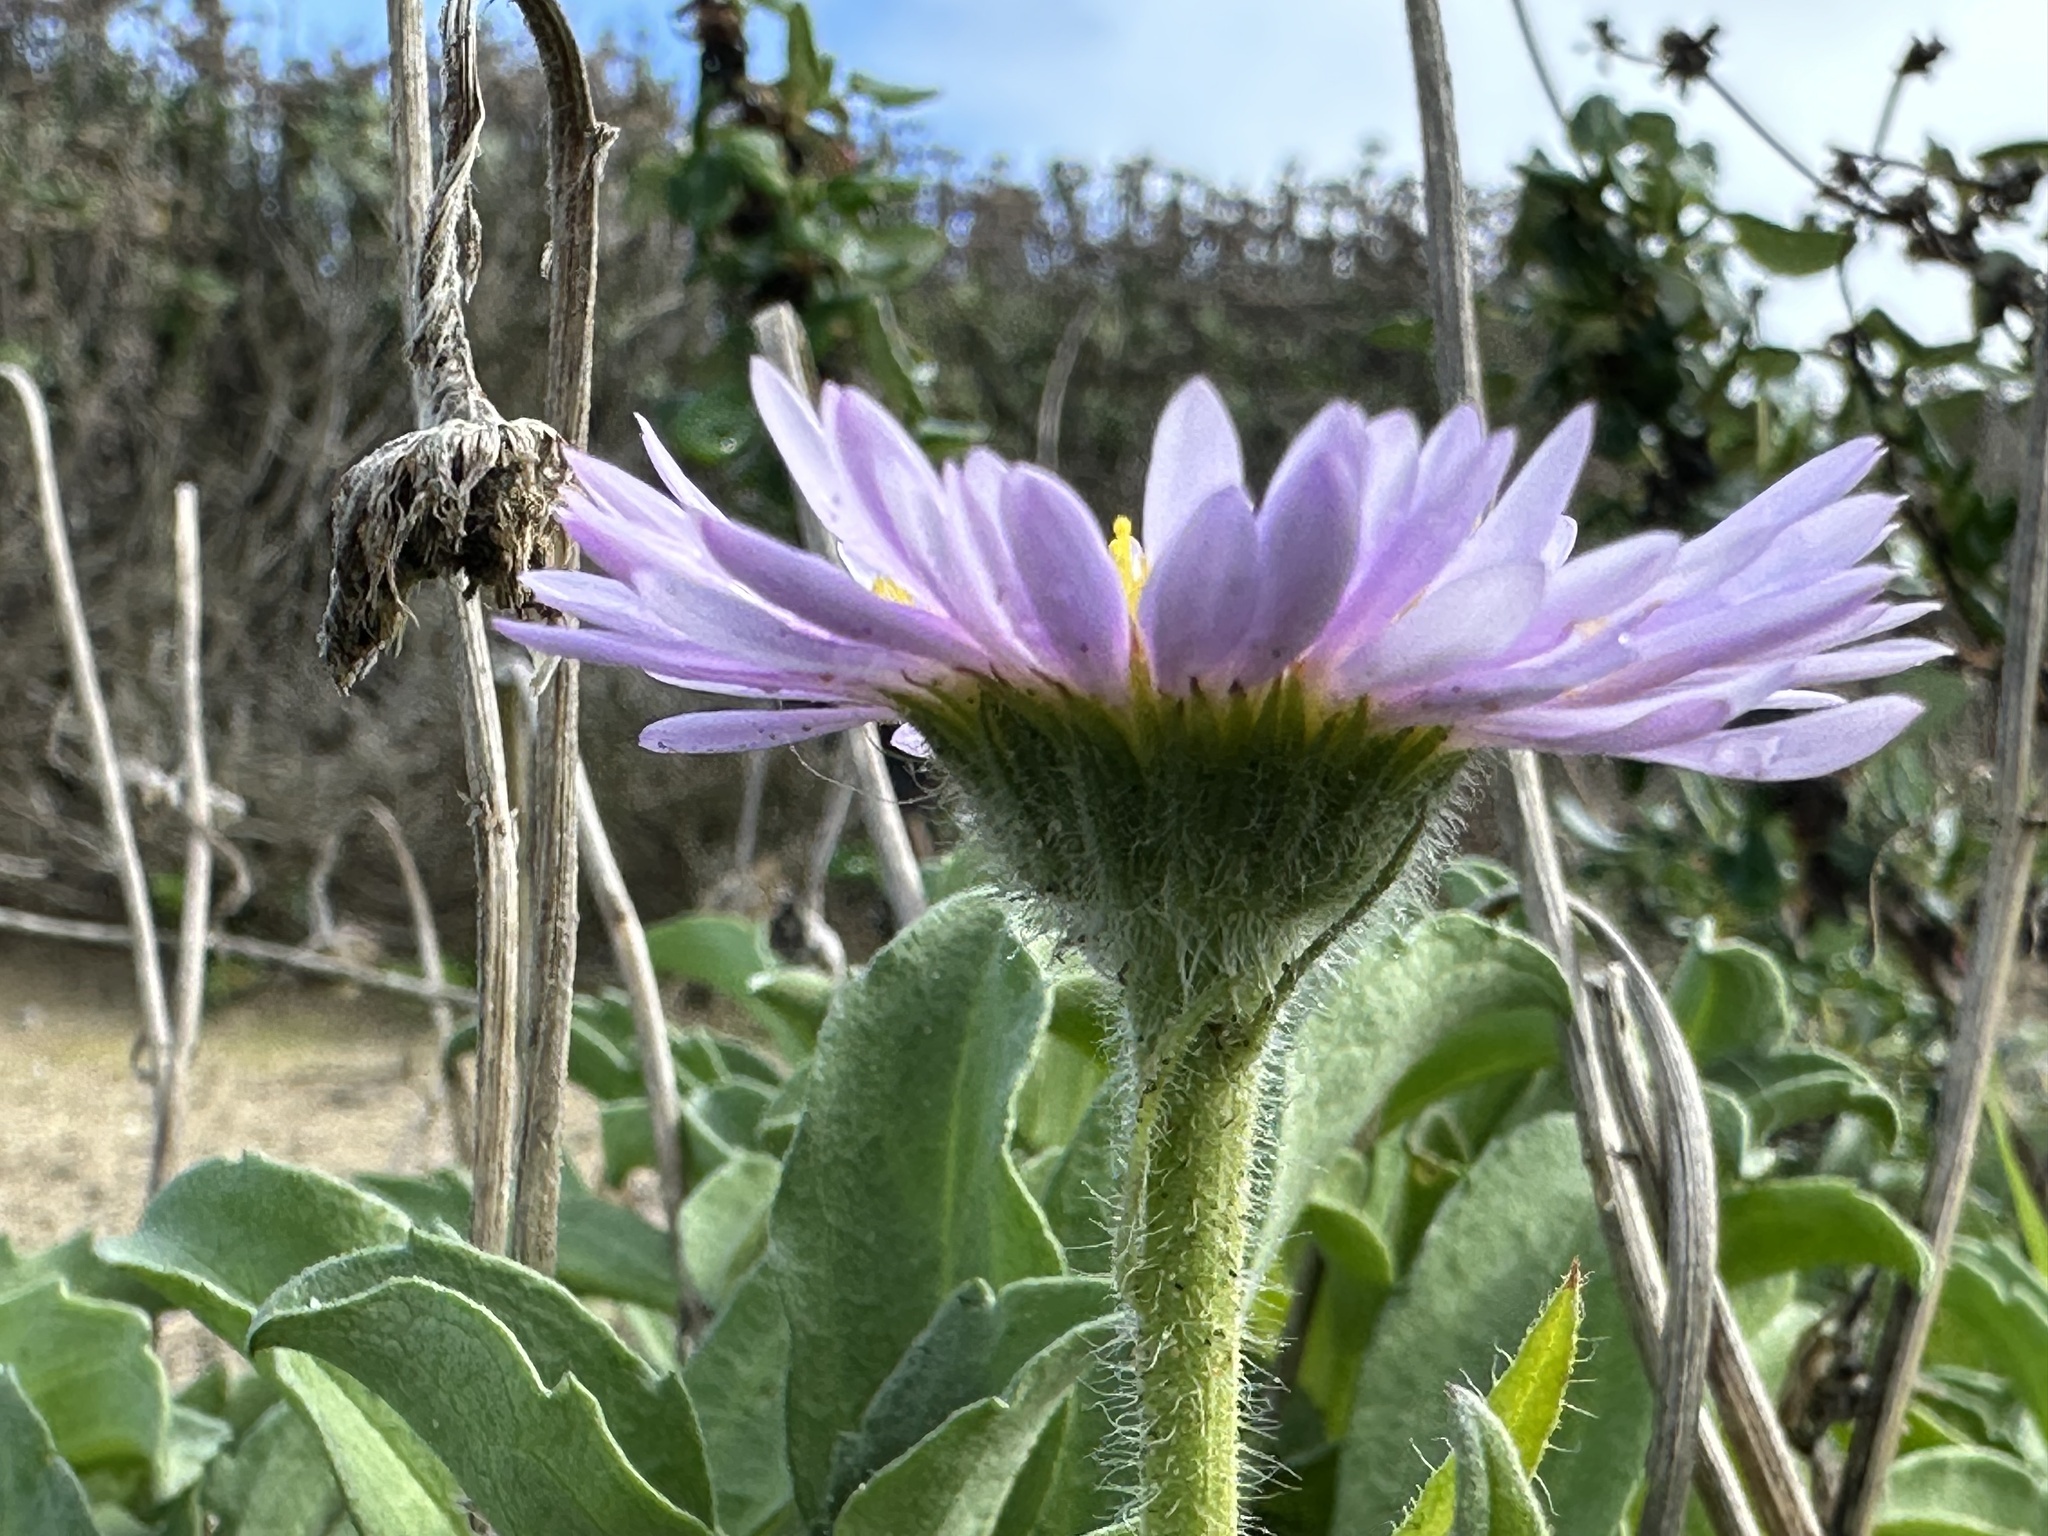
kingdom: Plantae
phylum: Tracheophyta
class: Magnoliopsida
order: Asterales
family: Asteraceae
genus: Erigeron
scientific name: Erigeron glaucus
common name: Seaside daisy
